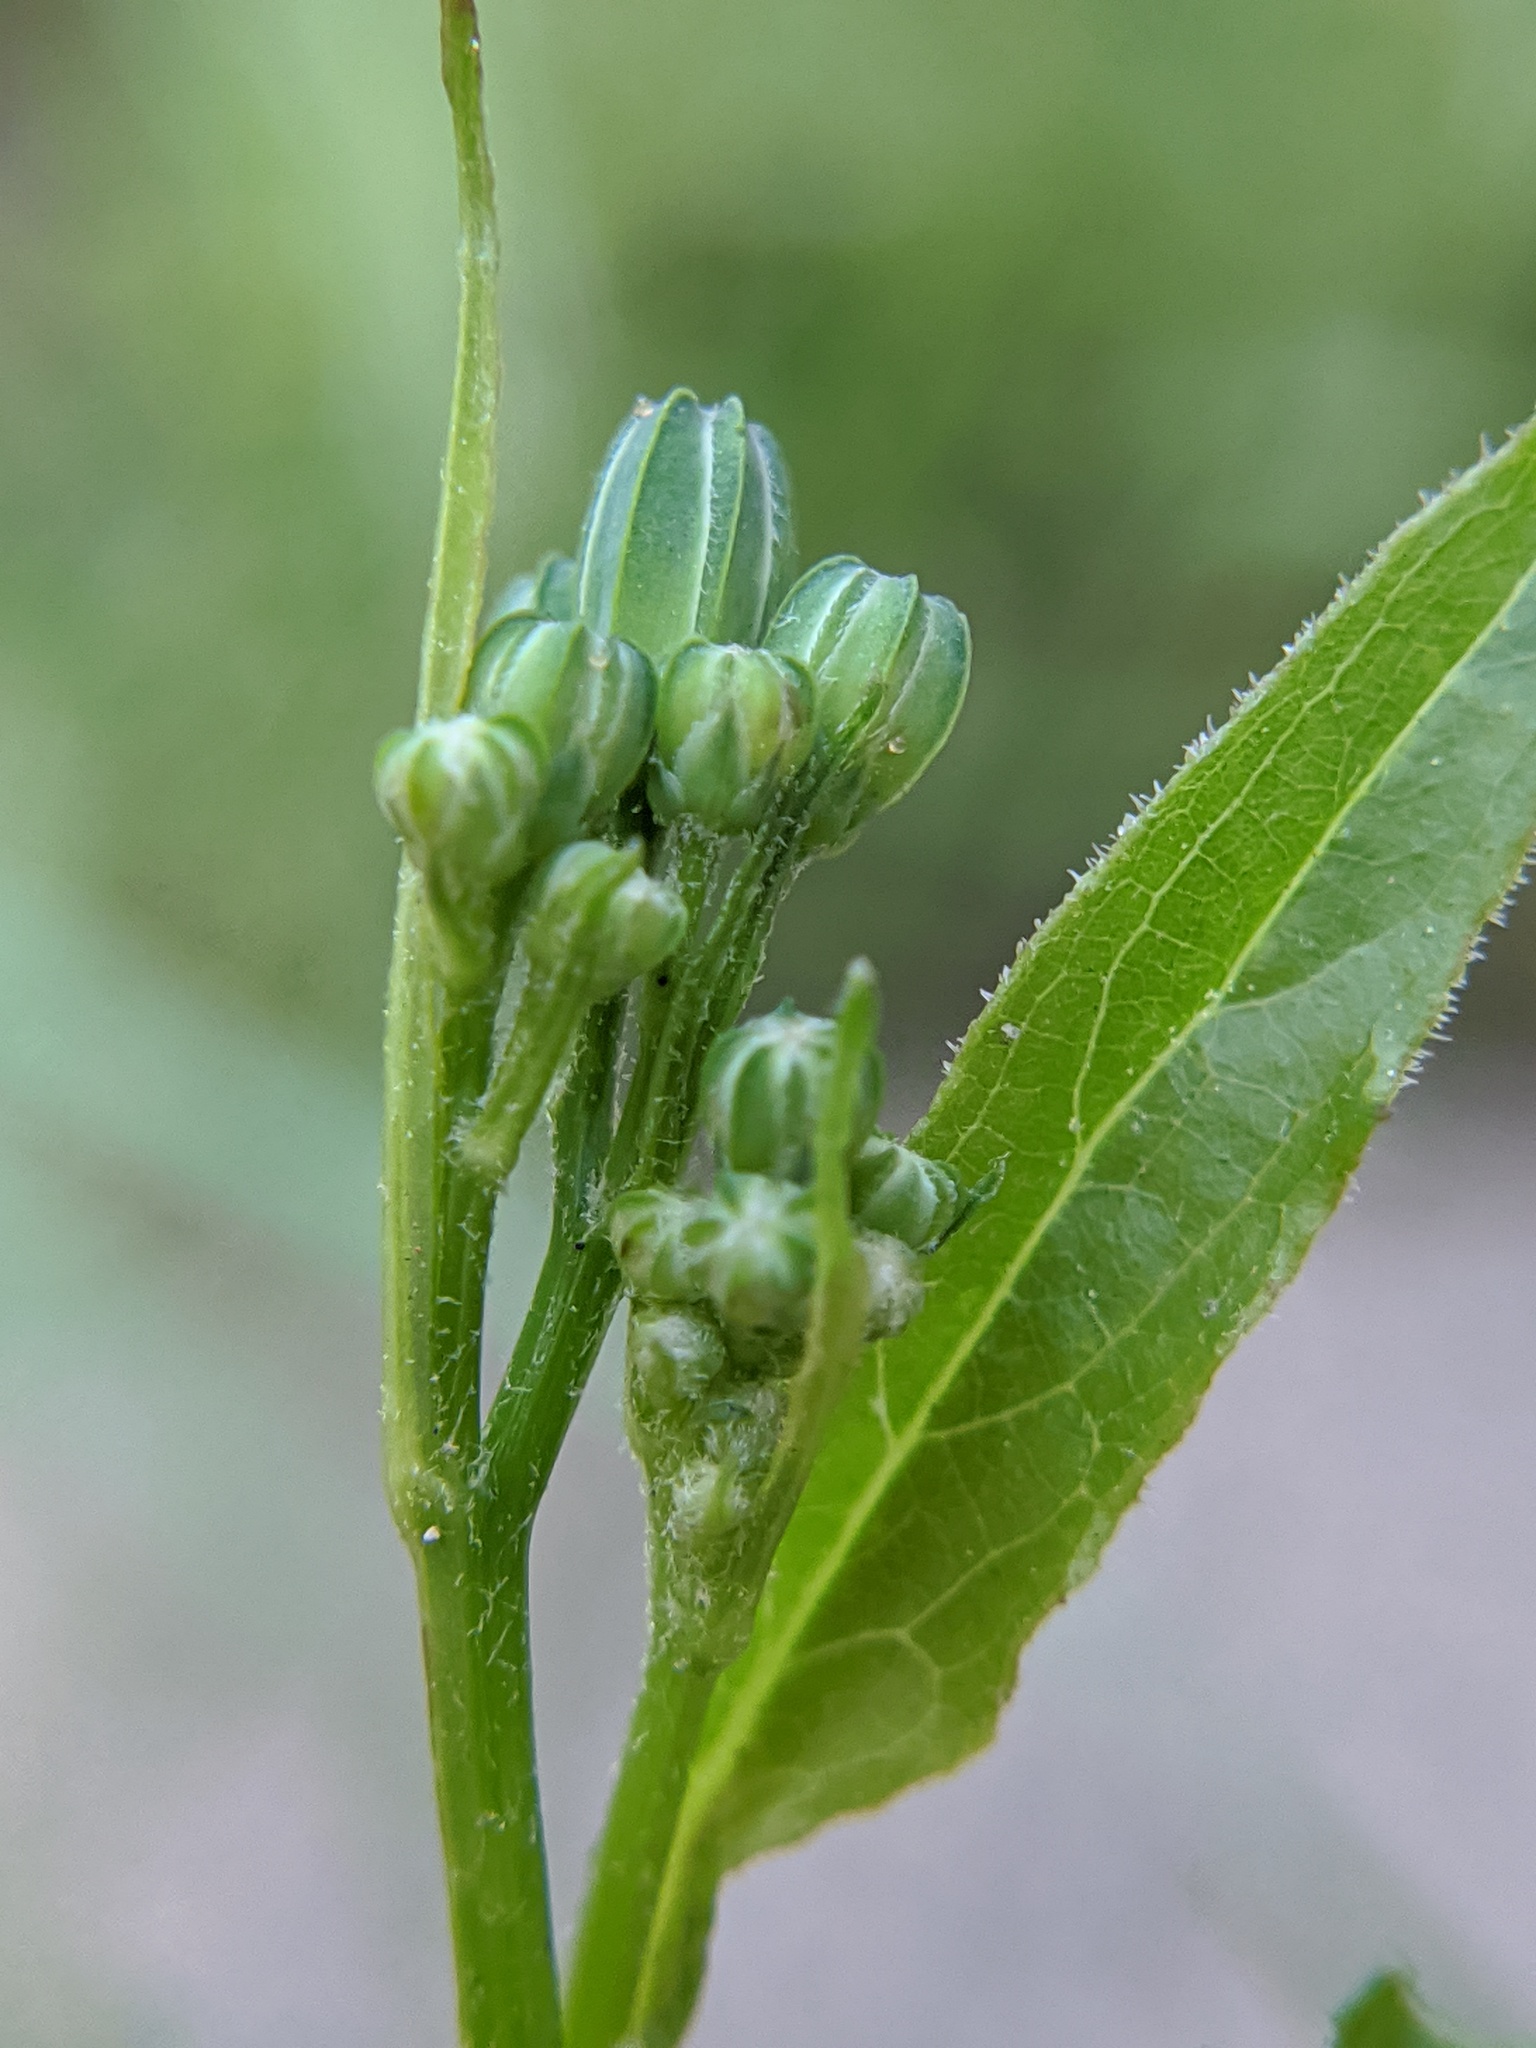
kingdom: Plantae
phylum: Tracheophyta
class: Magnoliopsida
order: Asterales
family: Asteraceae
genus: Lapsana
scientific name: Lapsana communis
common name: Nipplewort
